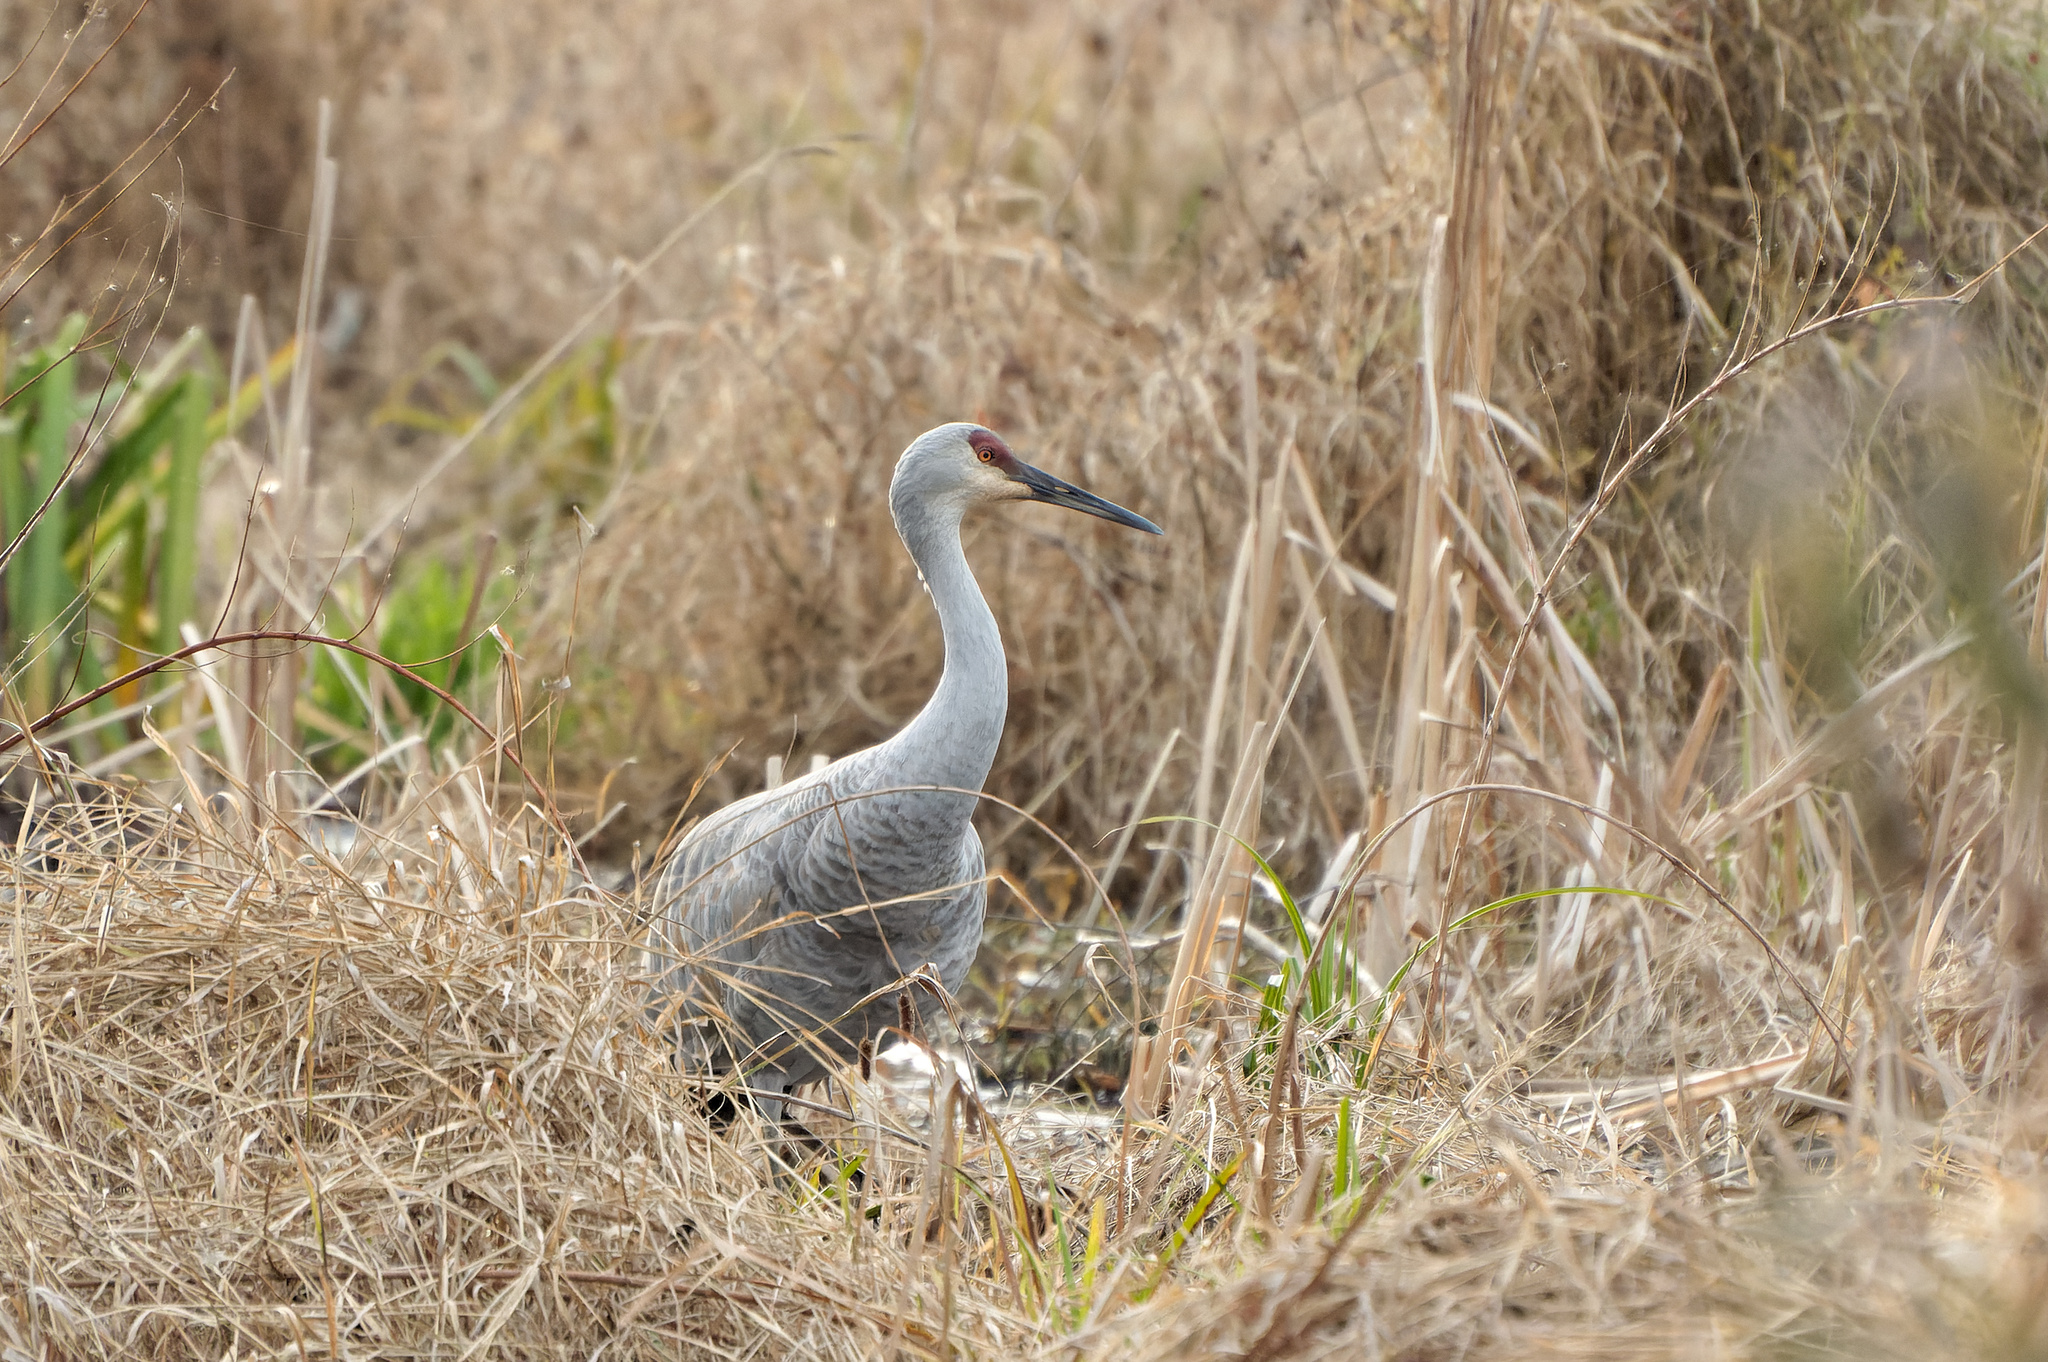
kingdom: Animalia
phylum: Chordata
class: Aves
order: Gruiformes
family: Gruidae
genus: Grus
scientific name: Grus canadensis
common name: Sandhill crane
